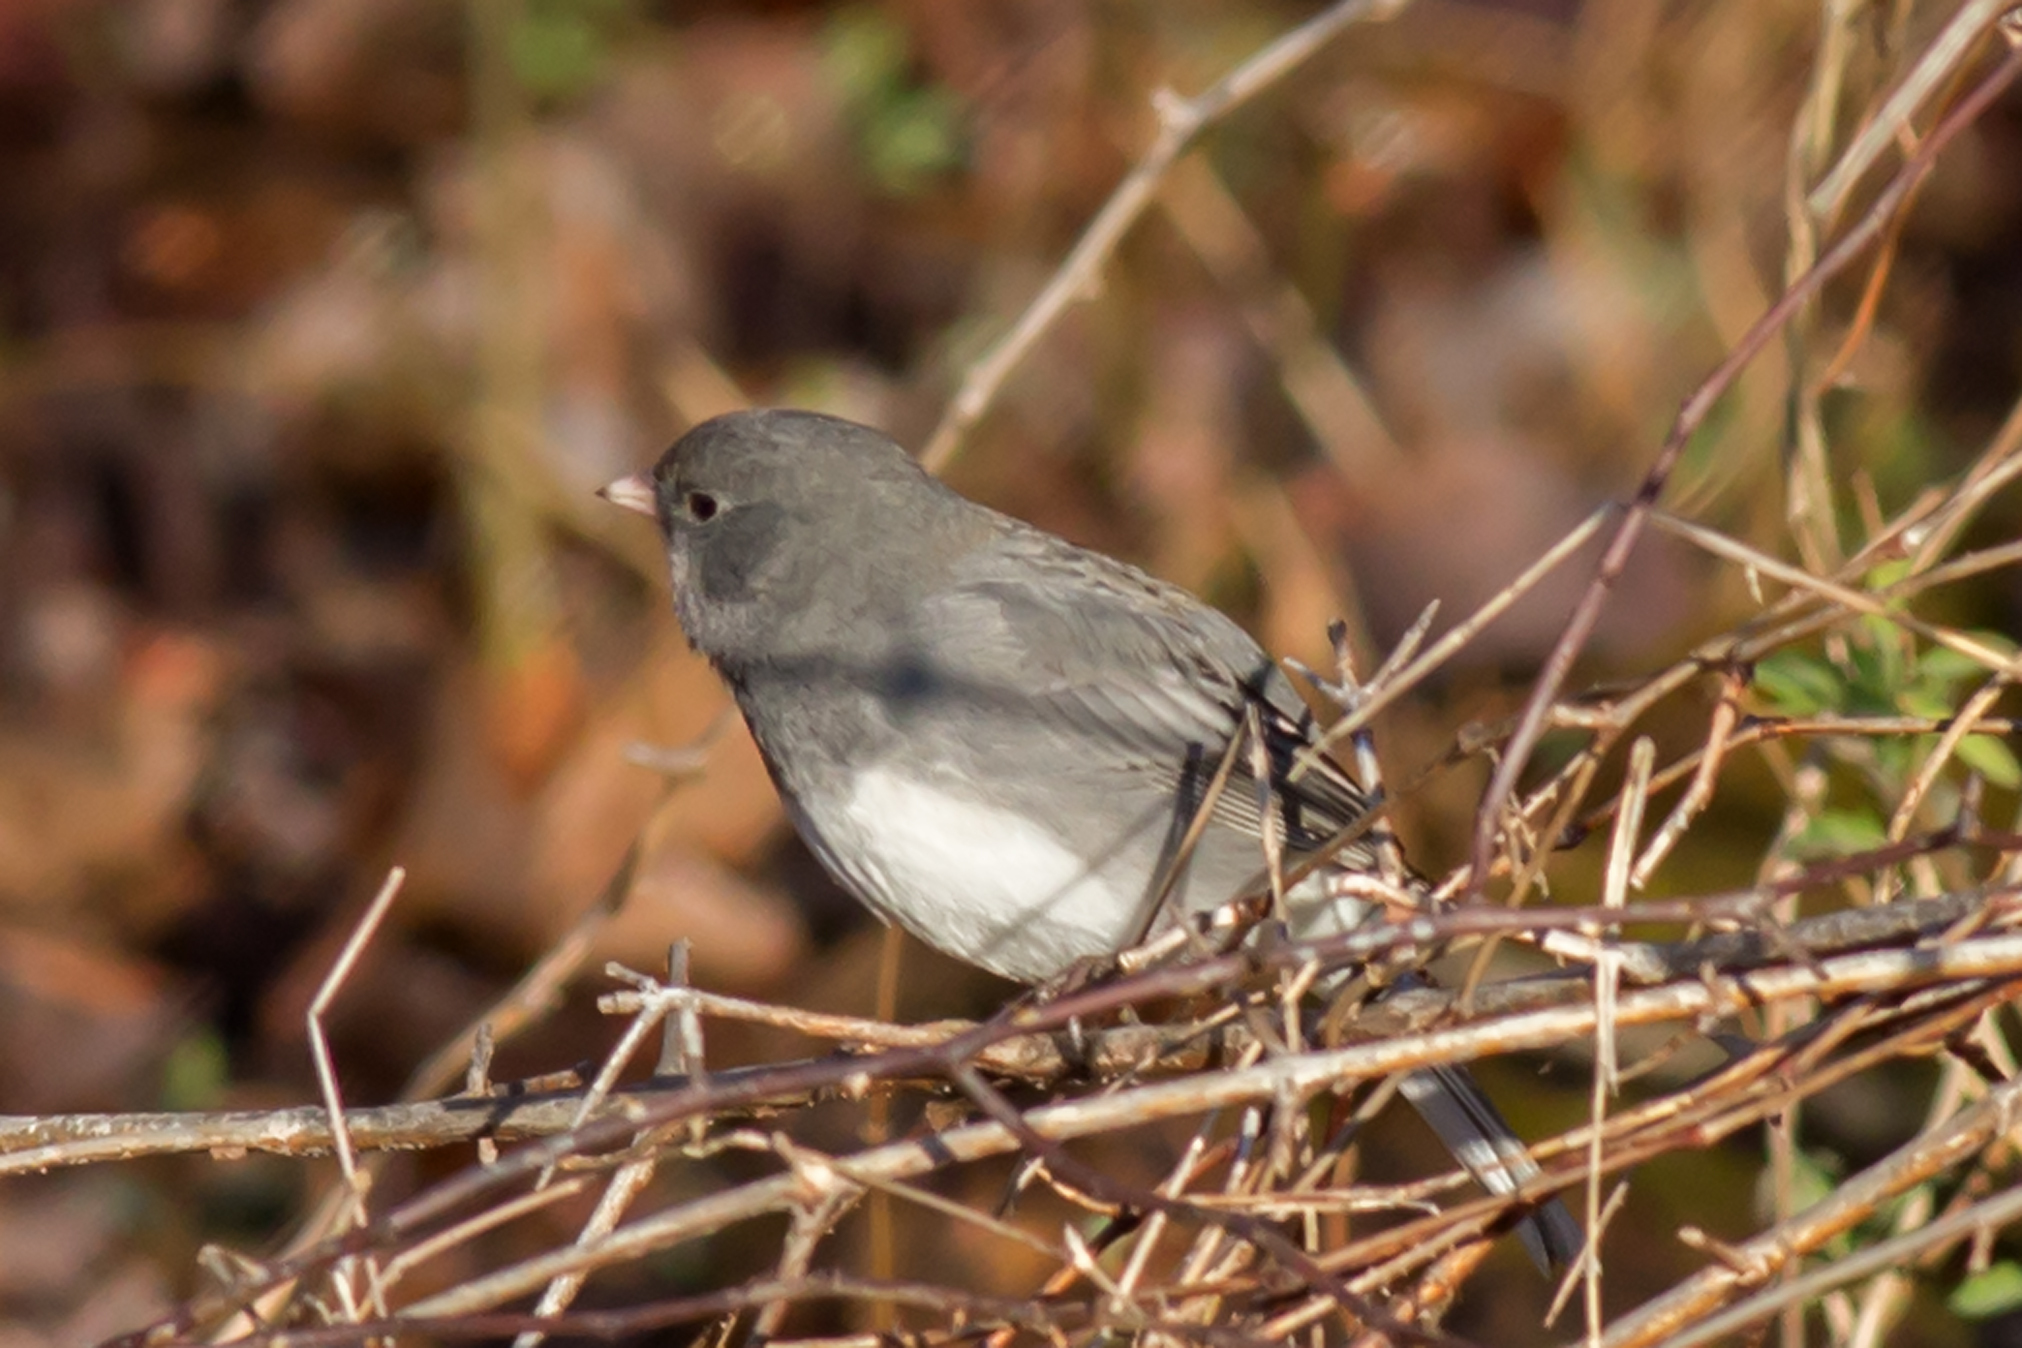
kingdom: Animalia
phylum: Chordata
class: Aves
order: Passeriformes
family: Passerellidae
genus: Junco
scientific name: Junco hyemalis
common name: Dark-eyed junco
